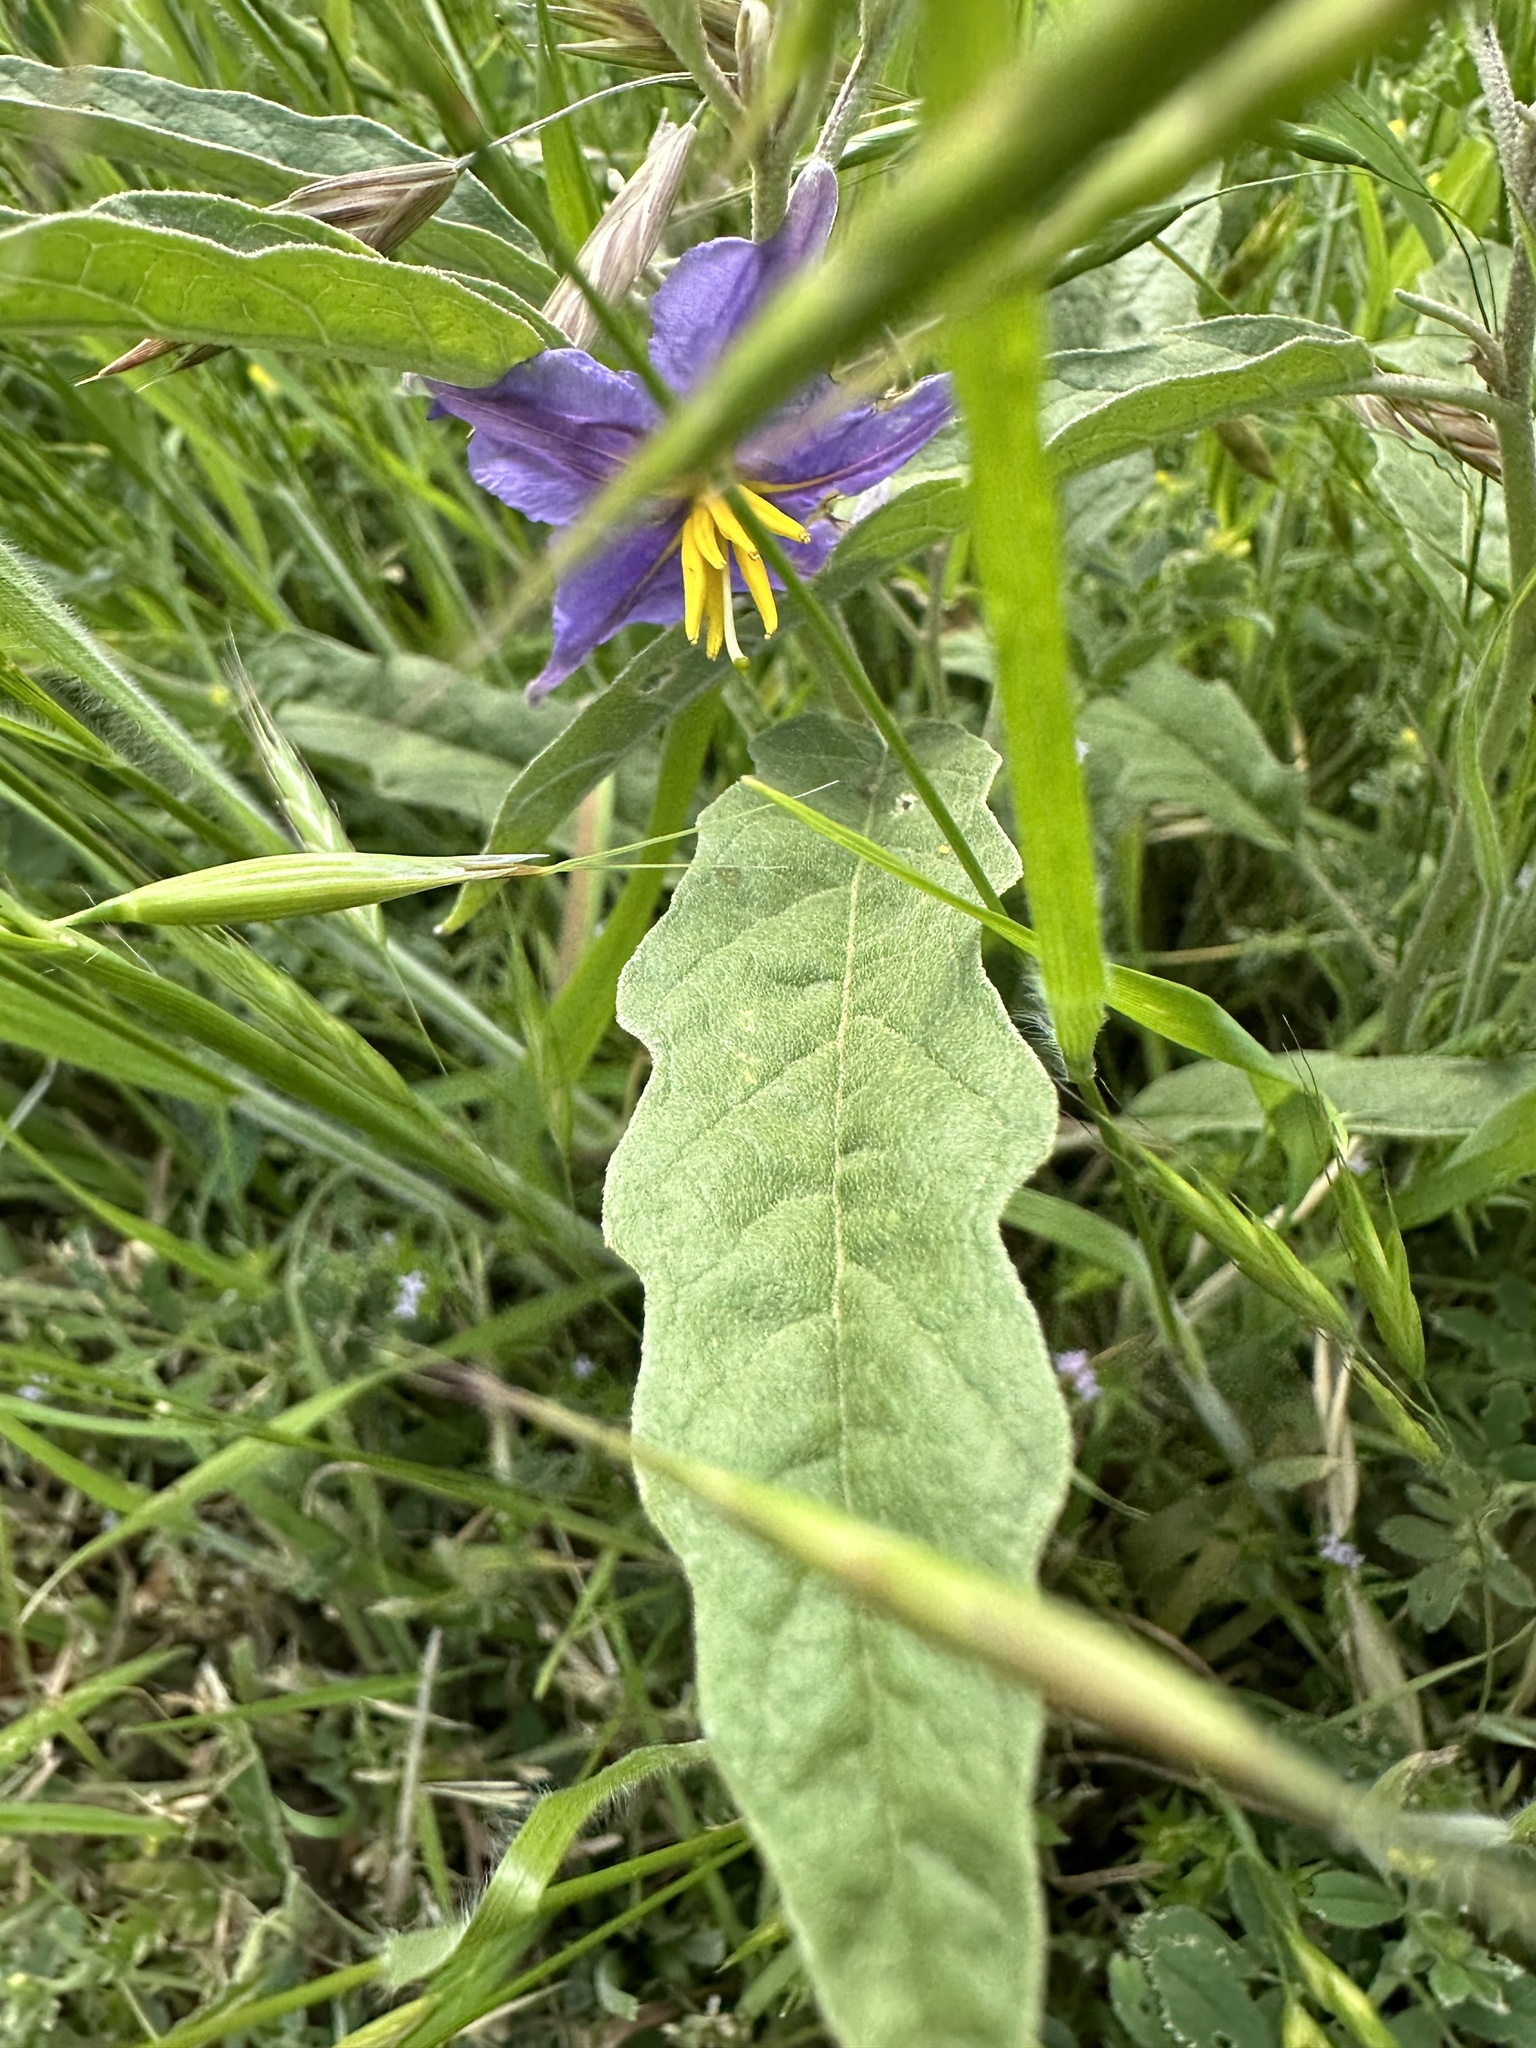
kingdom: Plantae
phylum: Tracheophyta
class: Magnoliopsida
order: Solanales
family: Solanaceae
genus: Solanum
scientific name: Solanum elaeagnifolium
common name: Silverleaf nightshade
